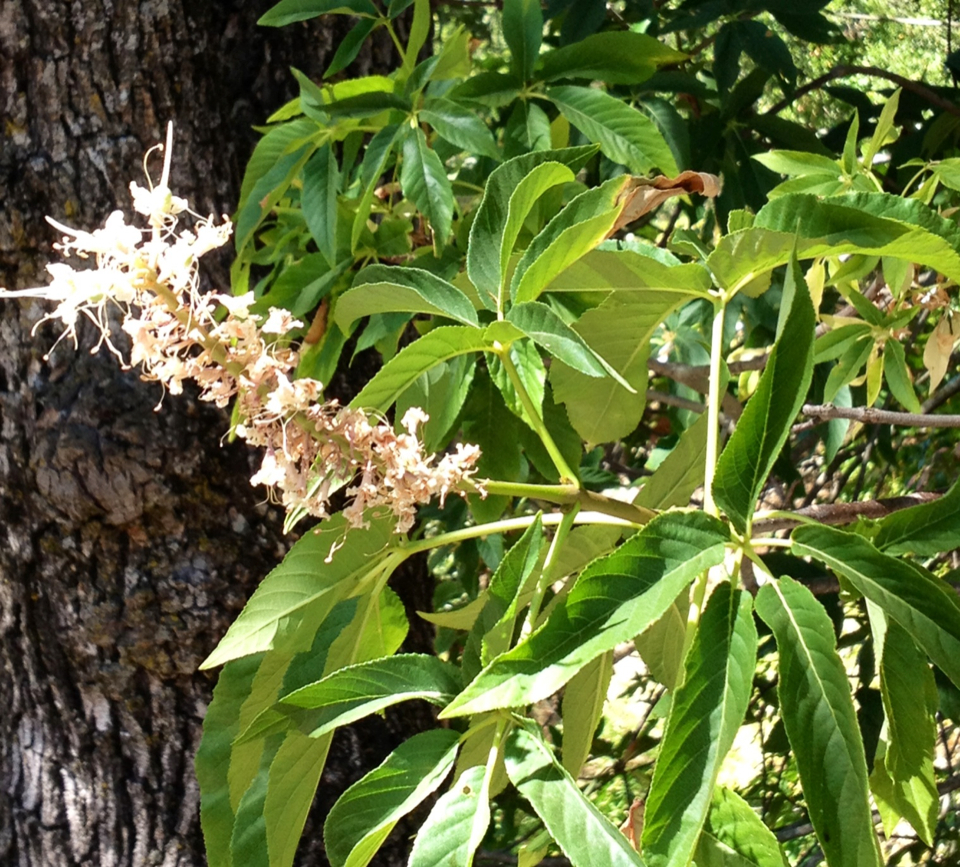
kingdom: Plantae
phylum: Tracheophyta
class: Magnoliopsida
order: Sapindales
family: Sapindaceae
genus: Aesculus
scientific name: Aesculus californica
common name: California buckeye
